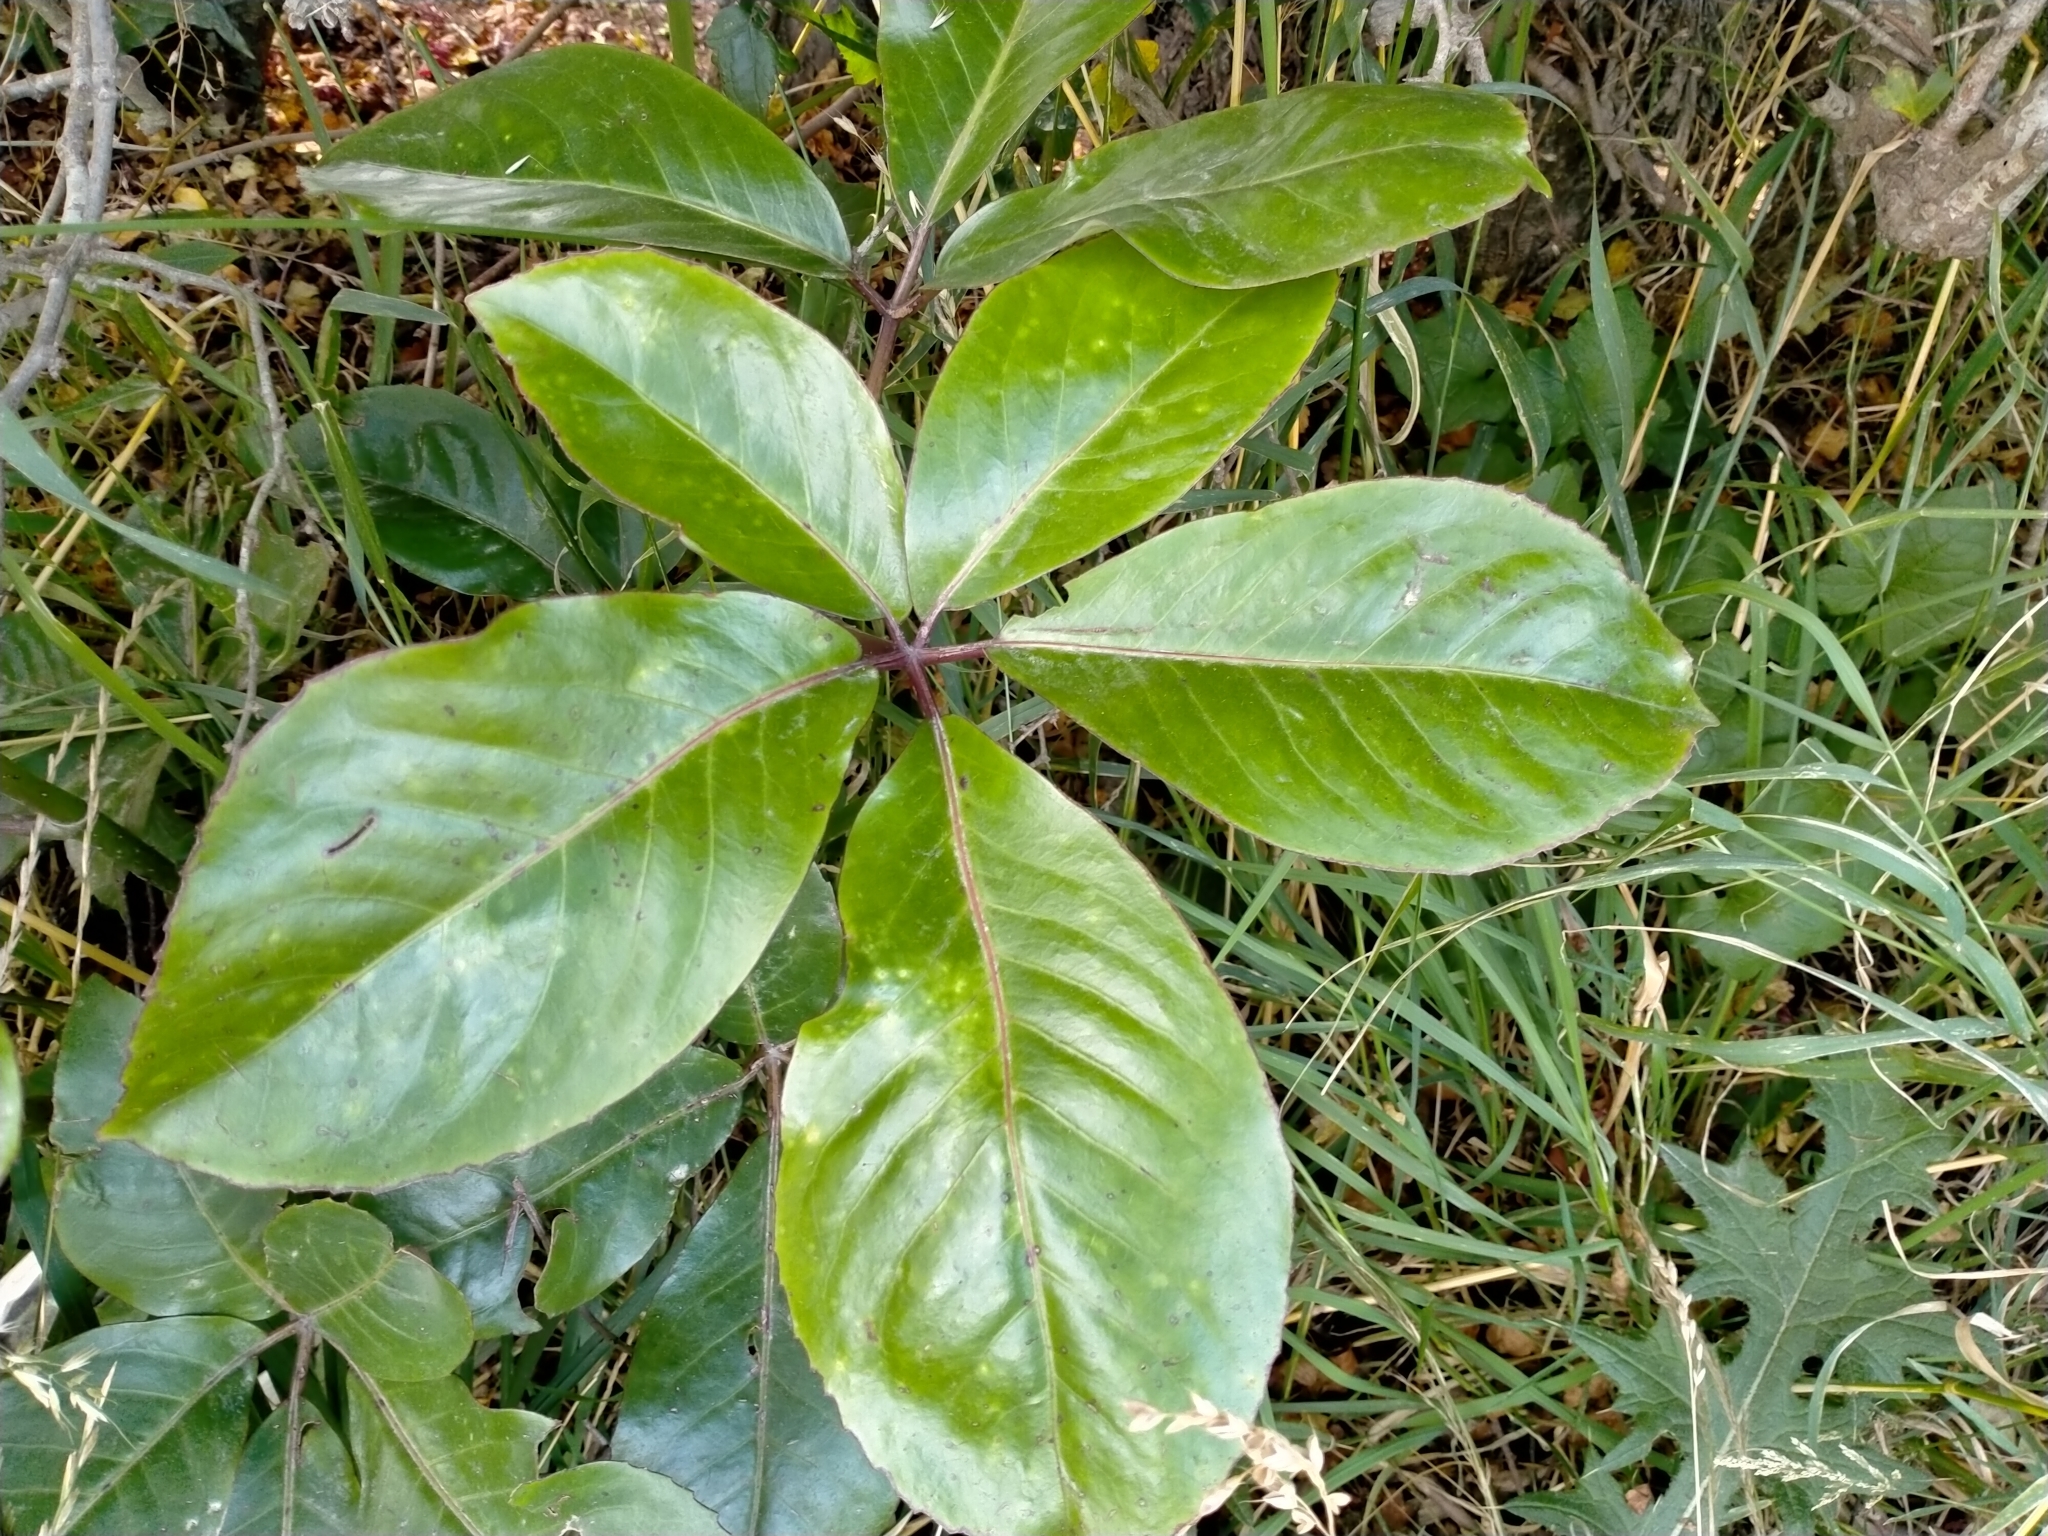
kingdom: Plantae
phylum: Tracheophyta
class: Magnoliopsida
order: Apiales
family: Araliaceae
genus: Neopanax
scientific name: Neopanax laetus
